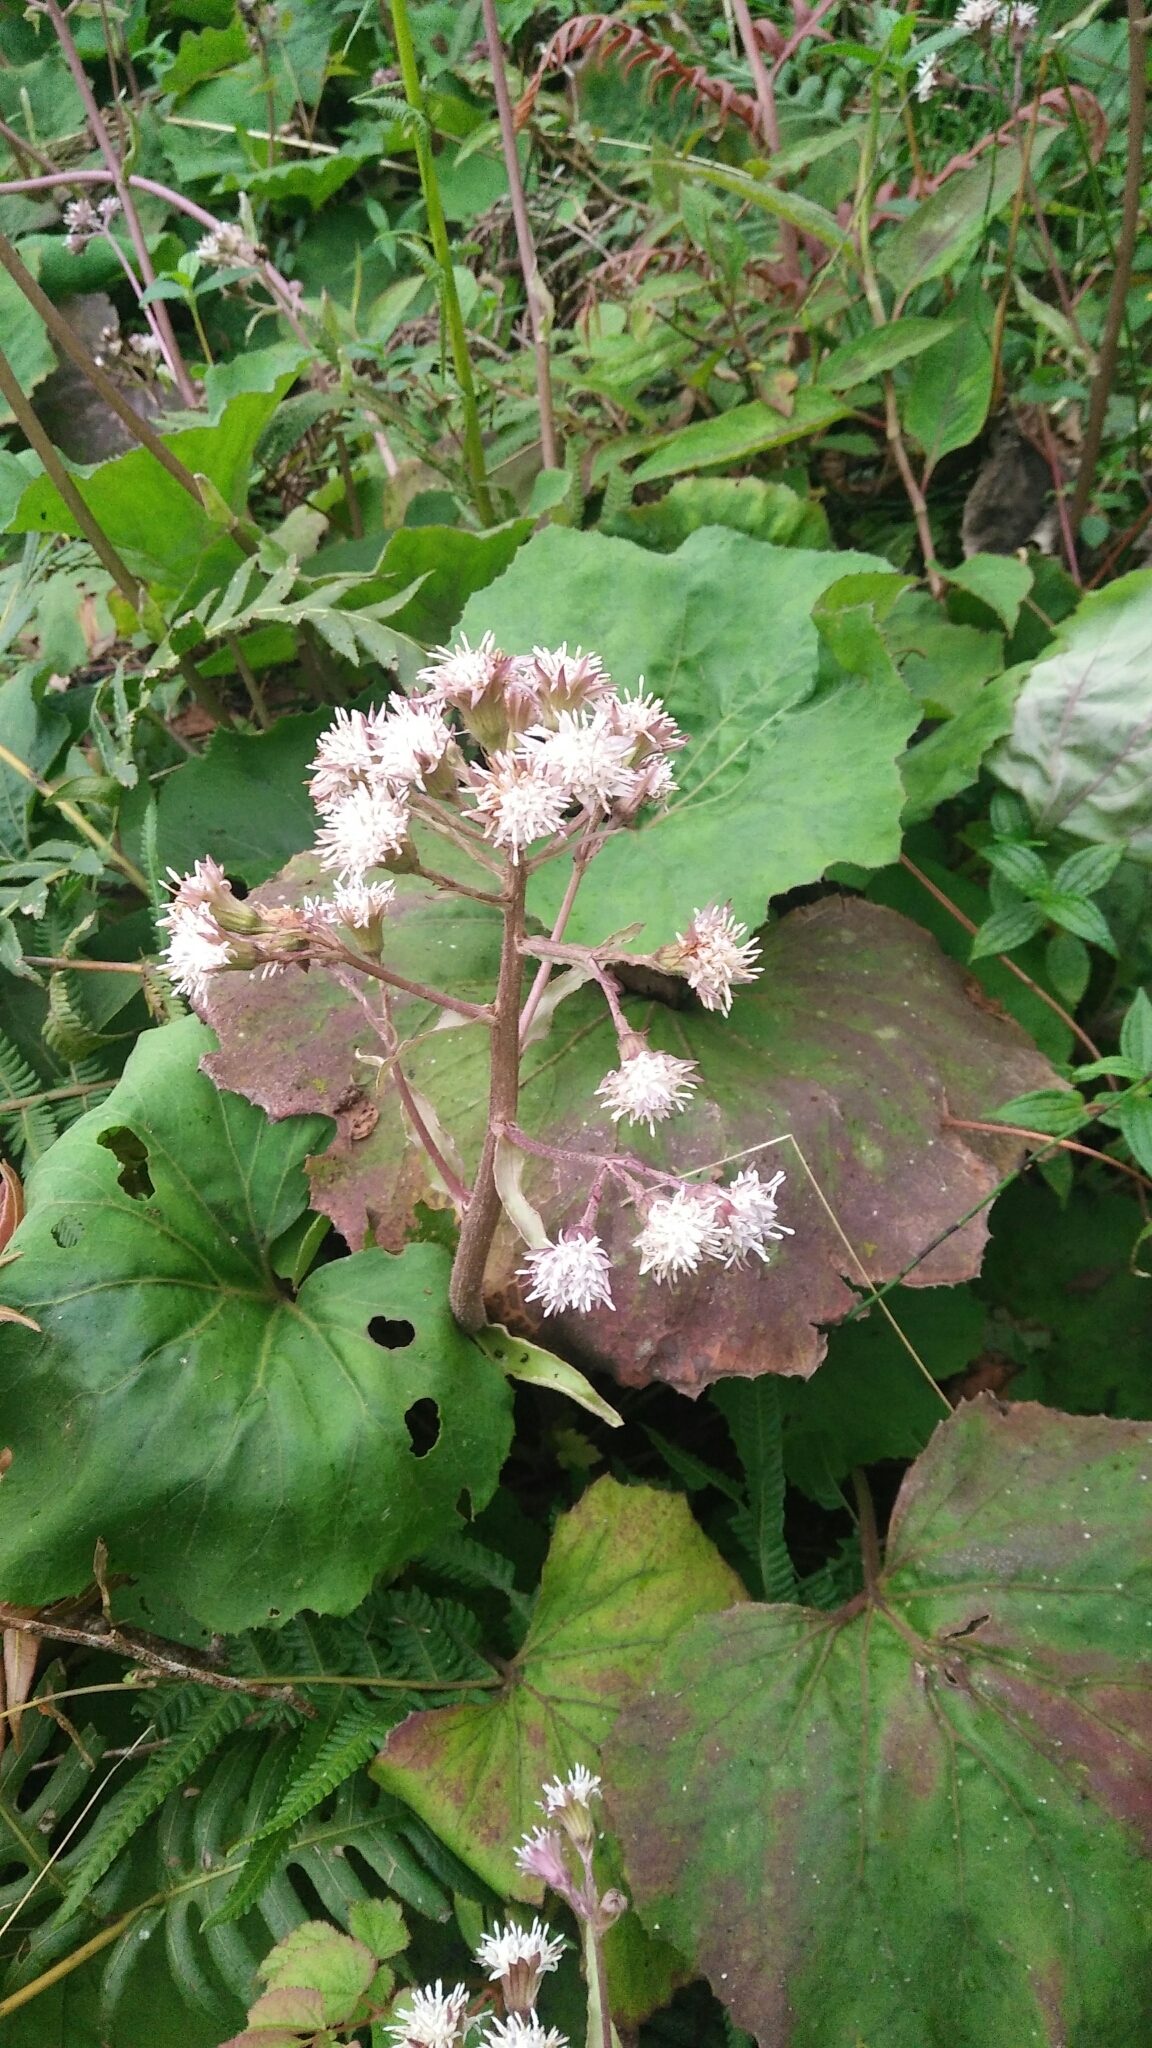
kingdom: Plantae
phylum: Tracheophyta
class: Magnoliopsida
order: Asterales
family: Asteraceae
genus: Petasites
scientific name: Petasites formosanus
